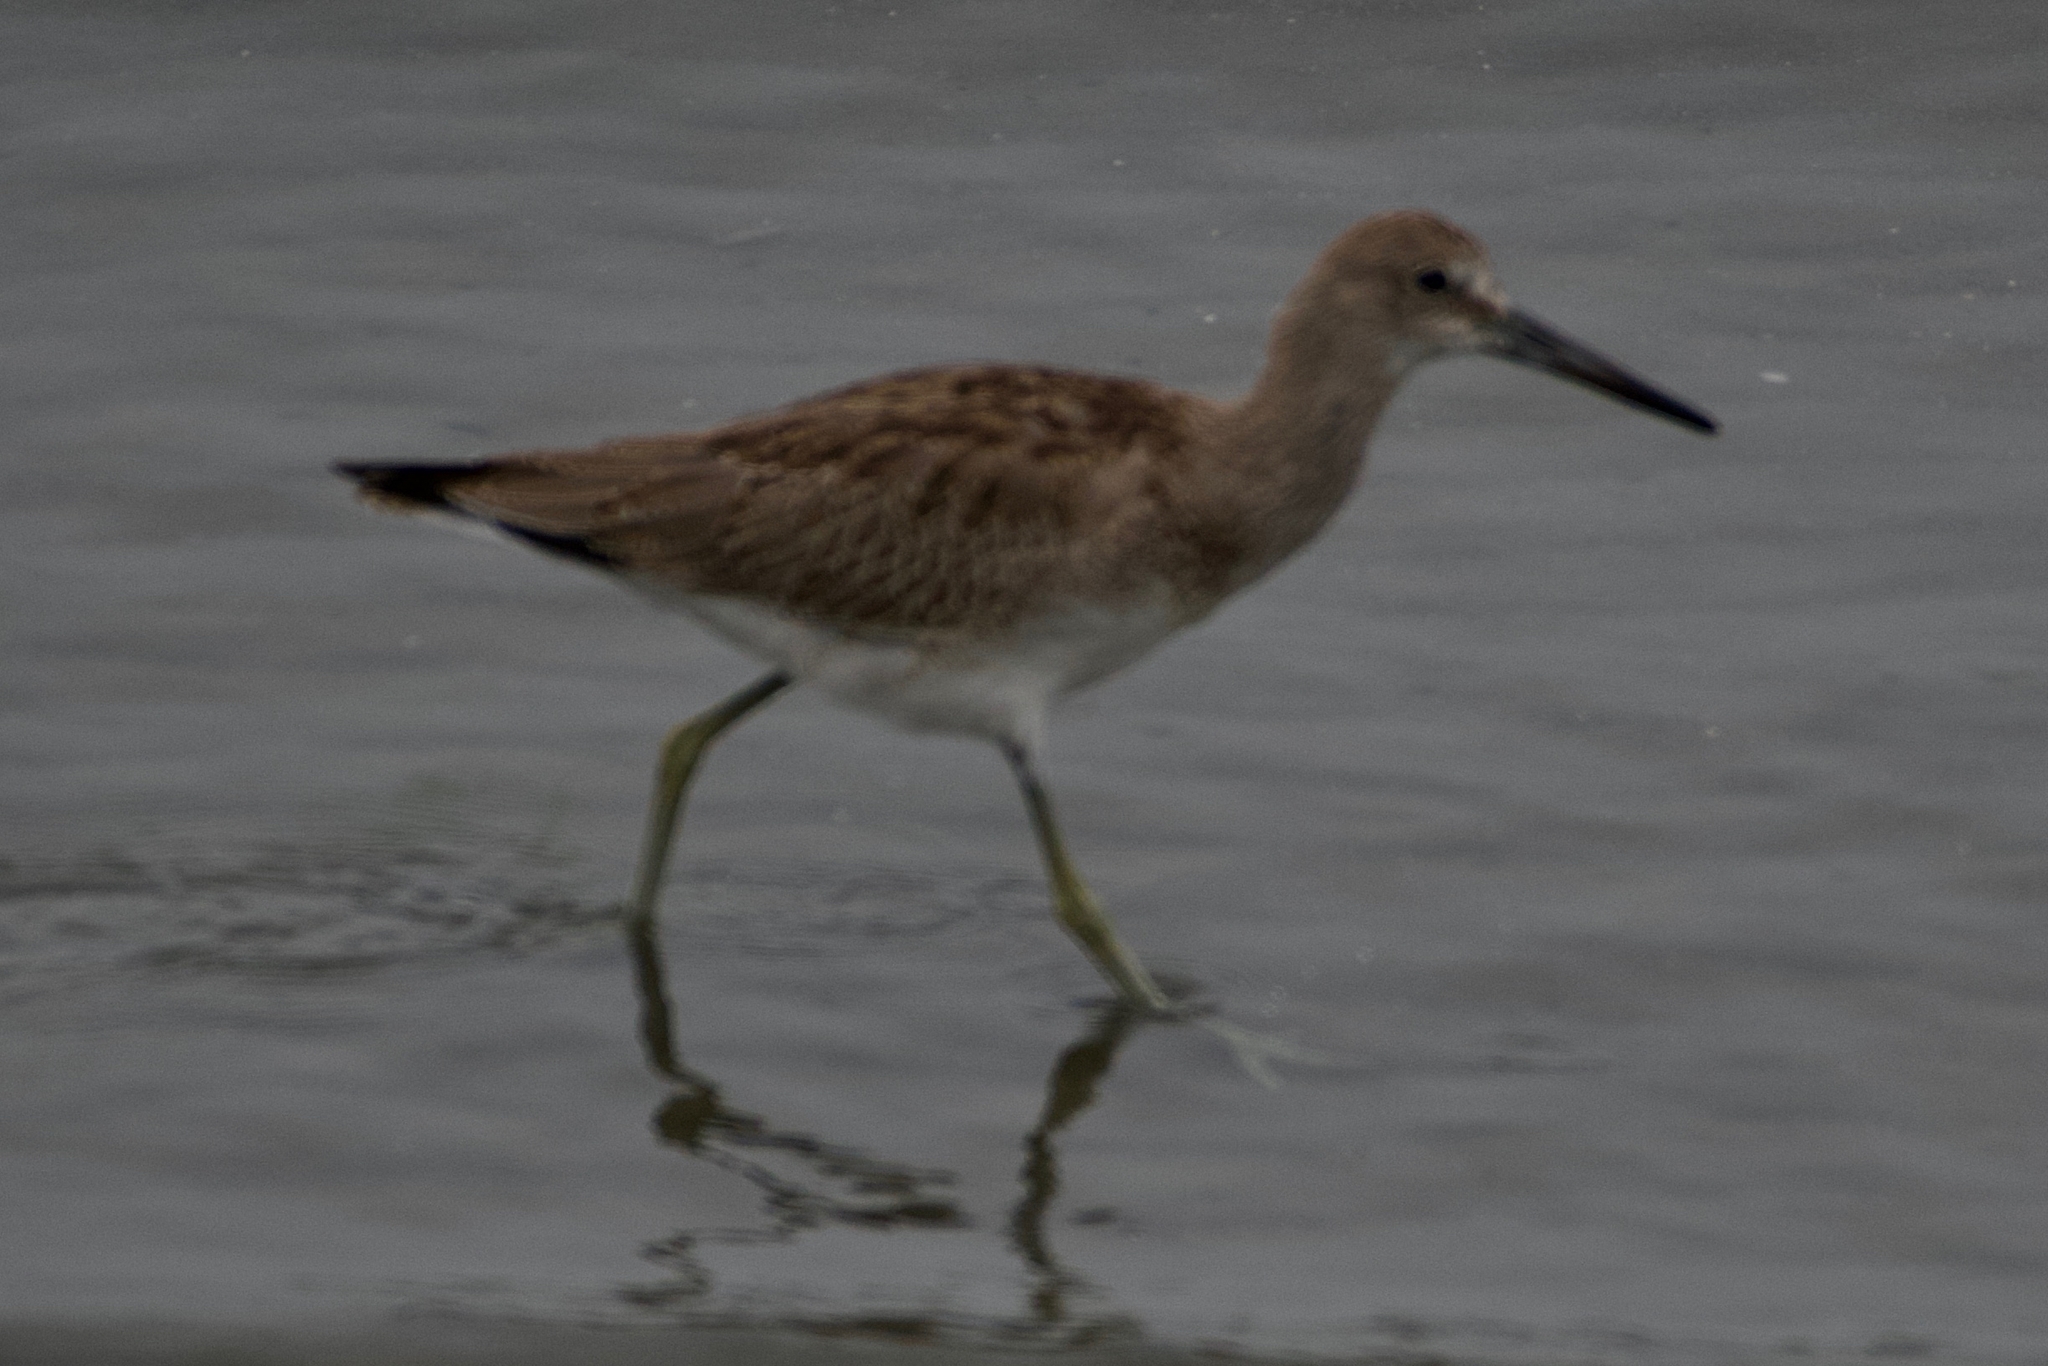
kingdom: Animalia
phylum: Chordata
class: Aves
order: Charadriiformes
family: Scolopacidae
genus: Tringa
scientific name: Tringa semipalmata
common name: Willet
